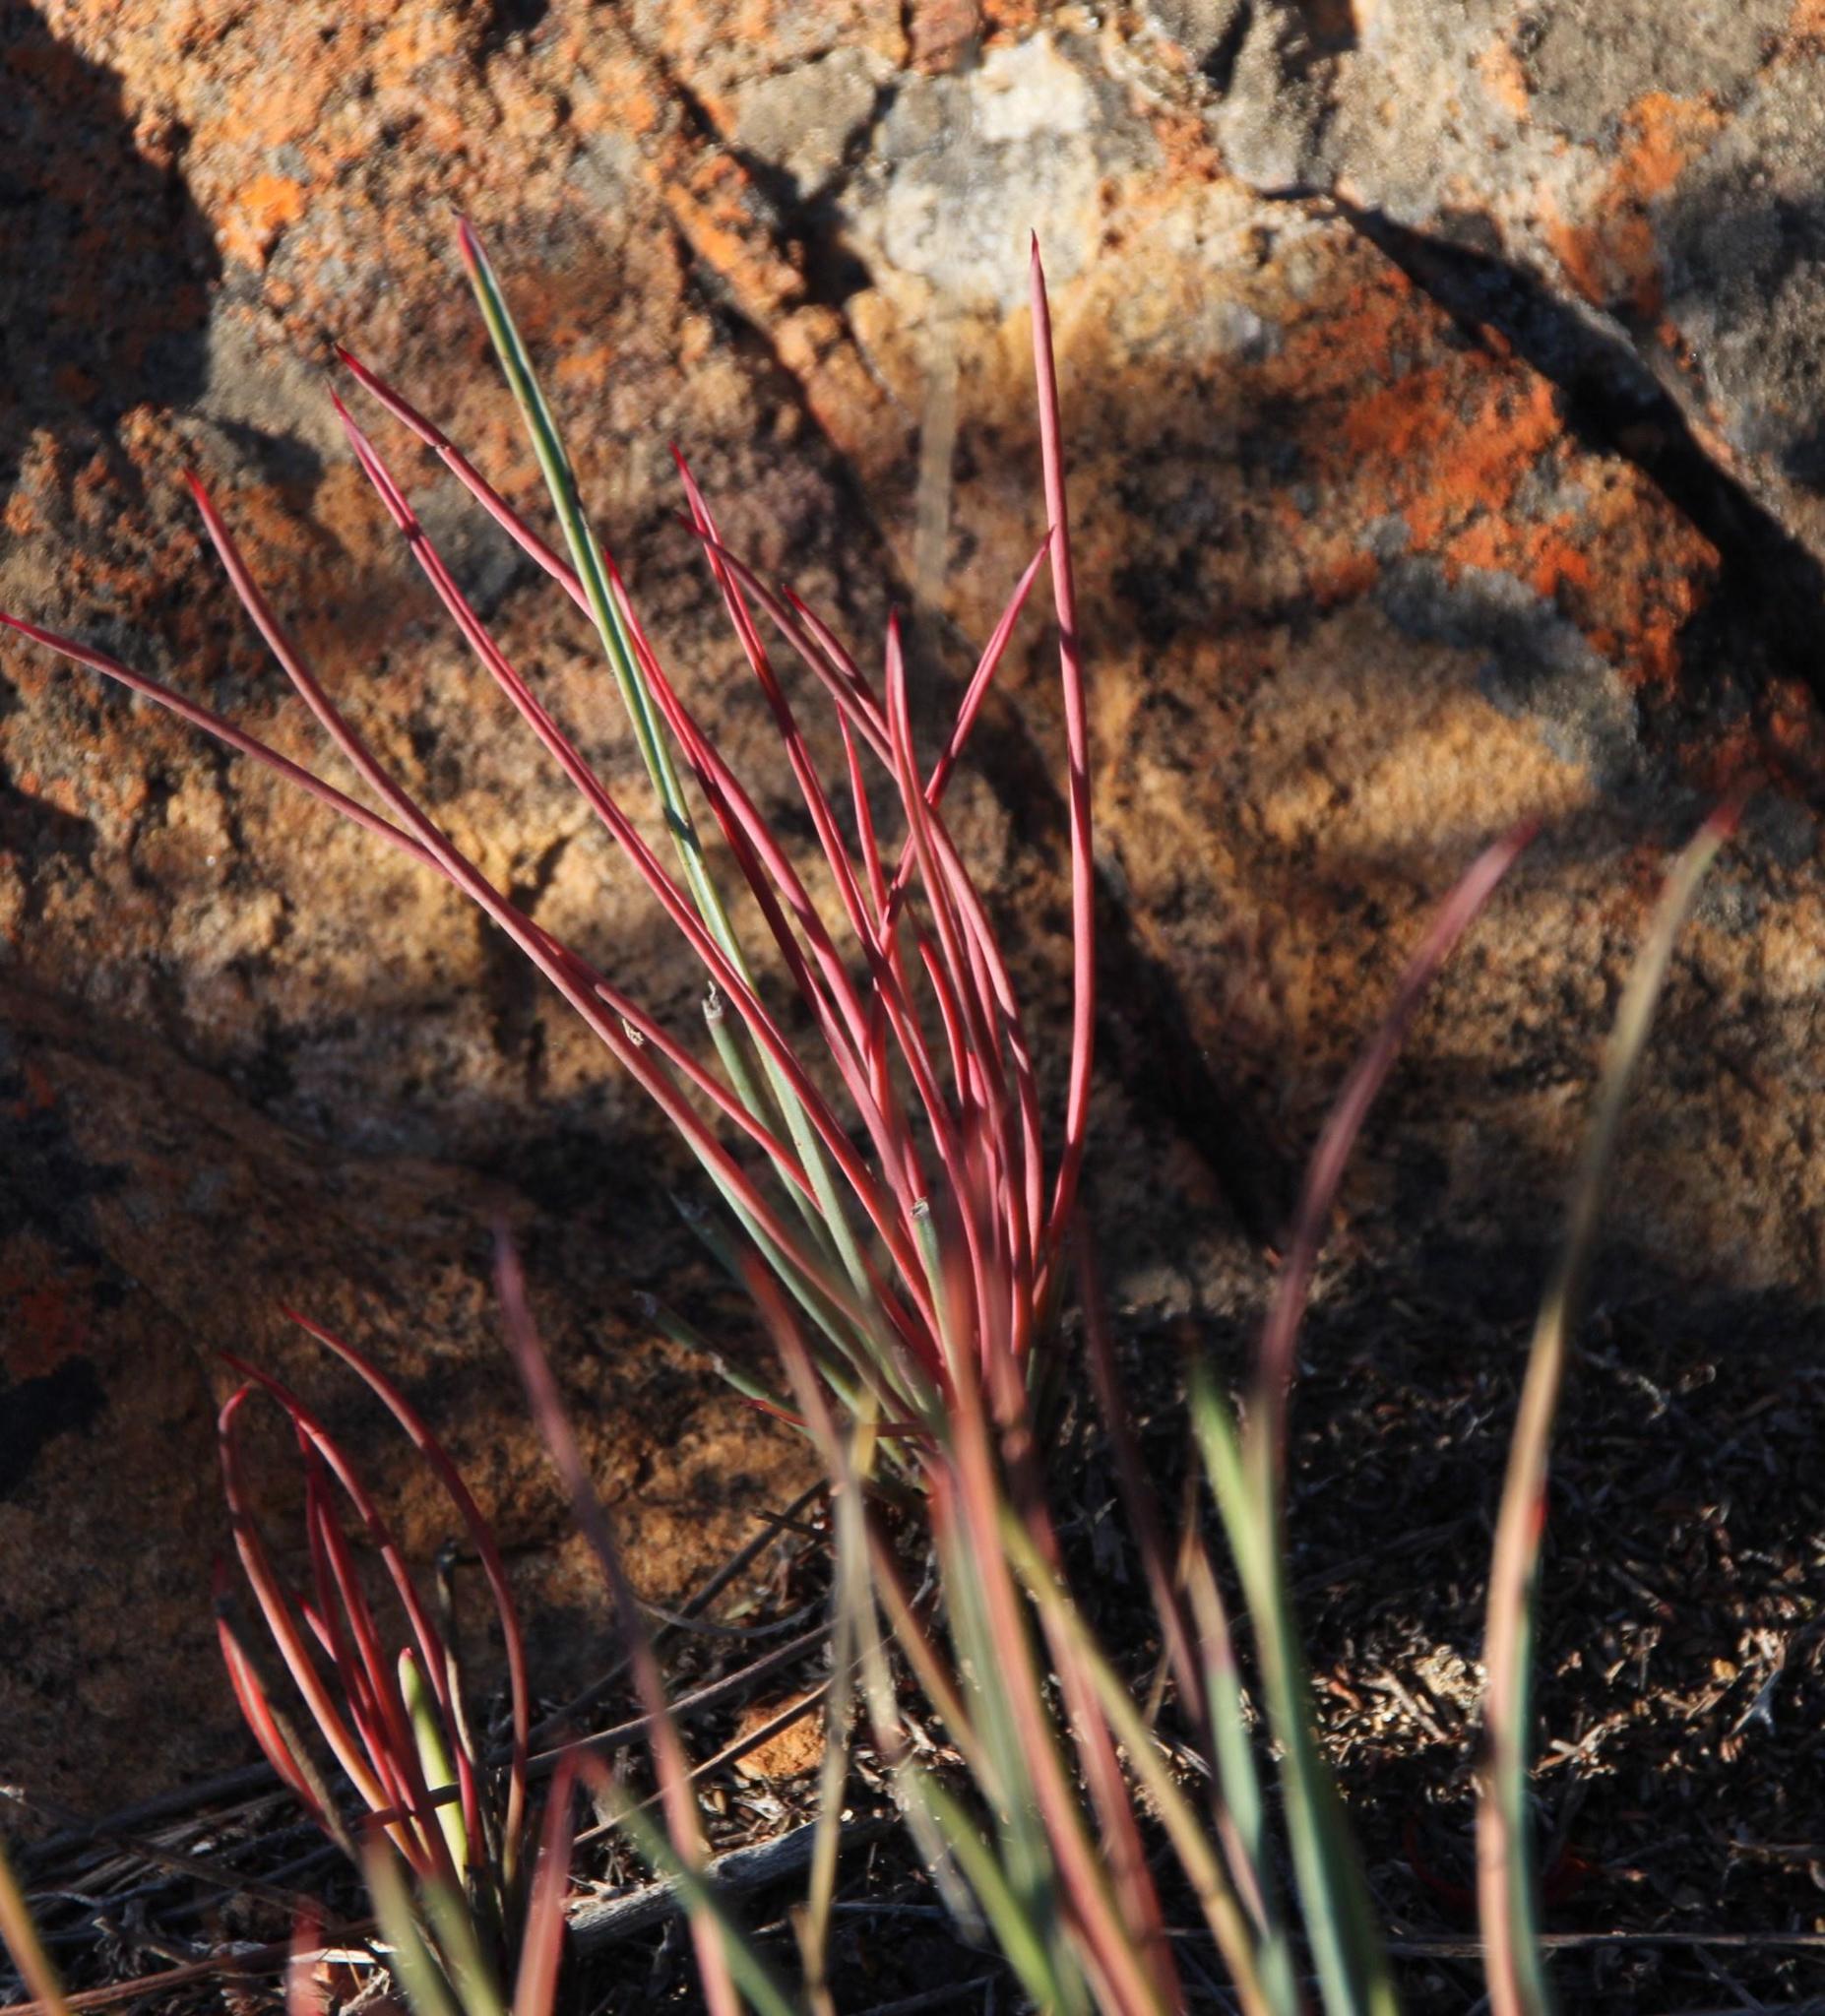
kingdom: Plantae
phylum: Tracheophyta
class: Magnoliopsida
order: Proteales
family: Proteaceae
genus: Protea
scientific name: Protea revoluta
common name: Rolled-leaf sugarbush
